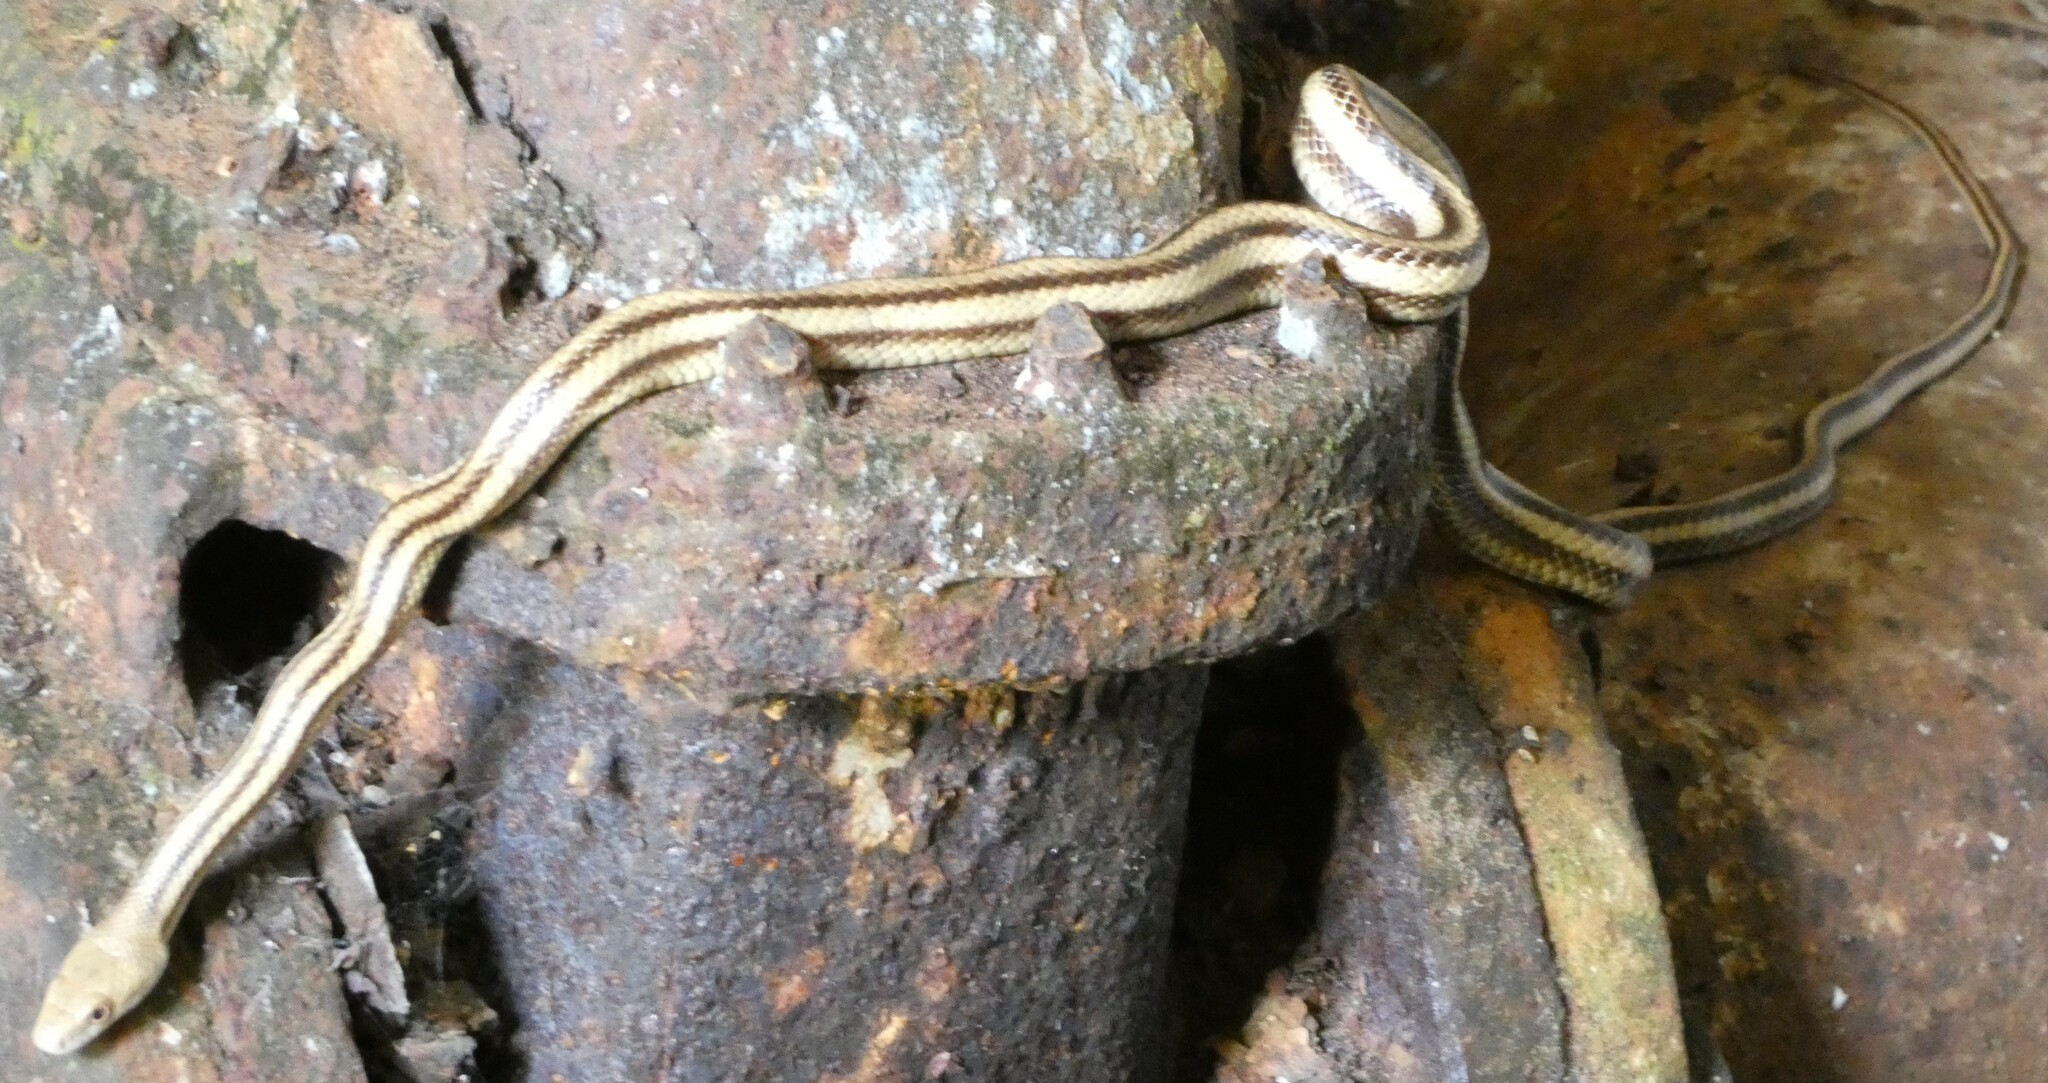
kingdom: Animalia
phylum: Chordata
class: Squamata
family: Colubridae
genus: Pantherophis
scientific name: Pantherophis alleghaniensis
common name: Eastern rat snake
